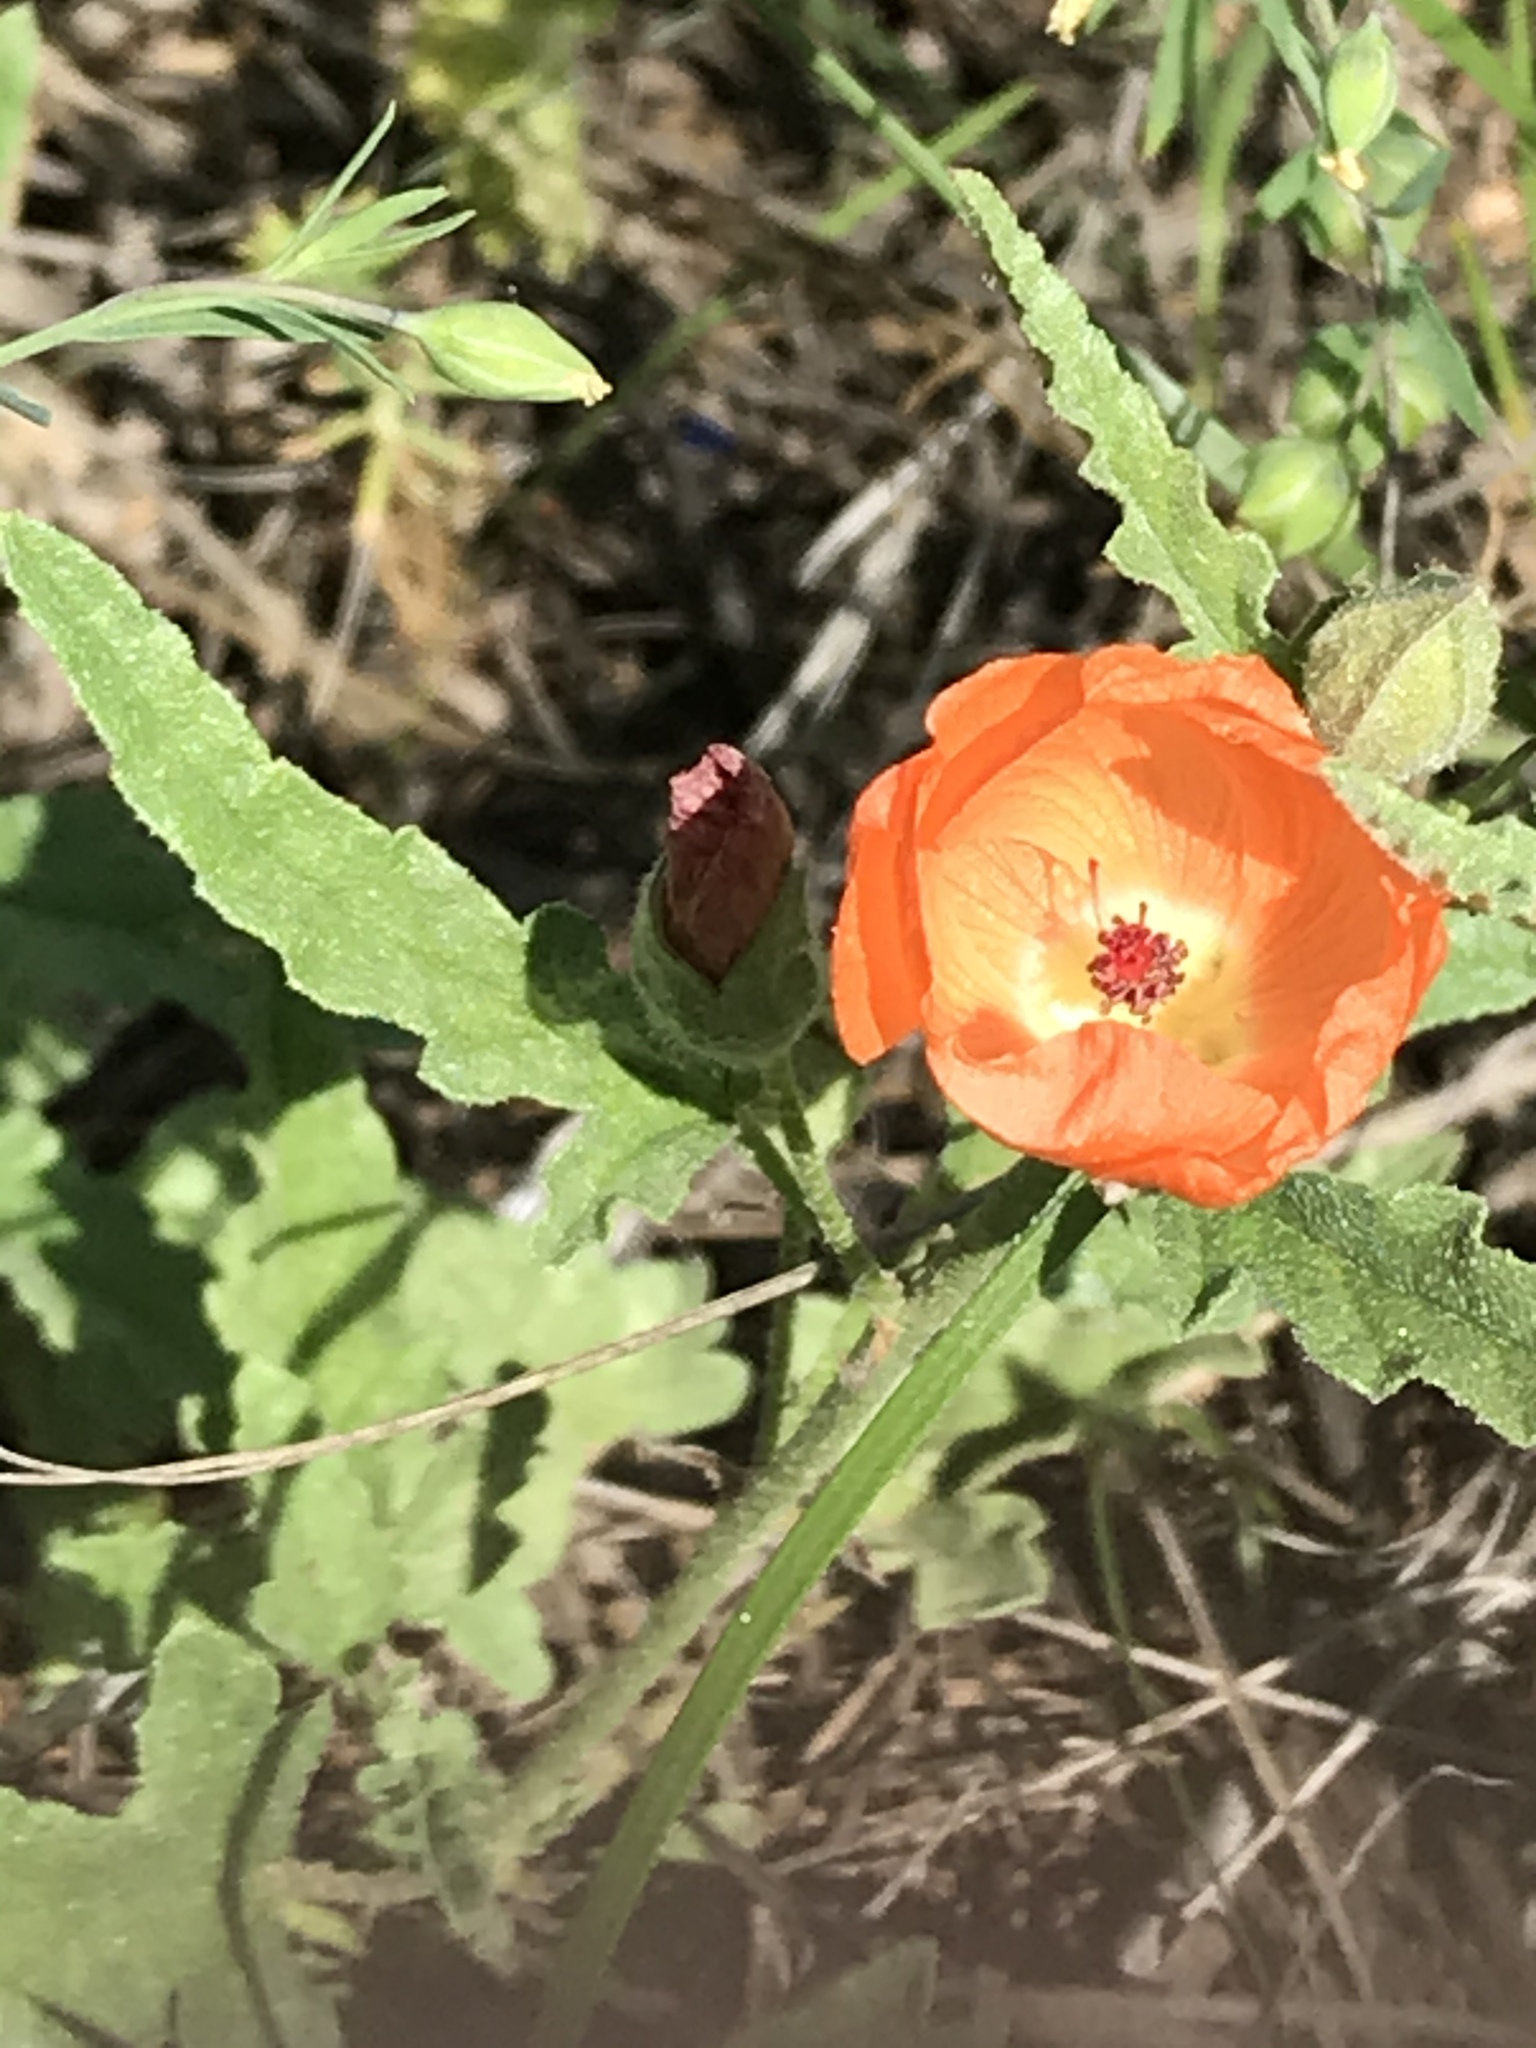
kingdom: Plantae
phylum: Tracheophyta
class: Magnoliopsida
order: Malvales
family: Malvaceae
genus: Sphaeralcea
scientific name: Sphaeralcea hastulata
